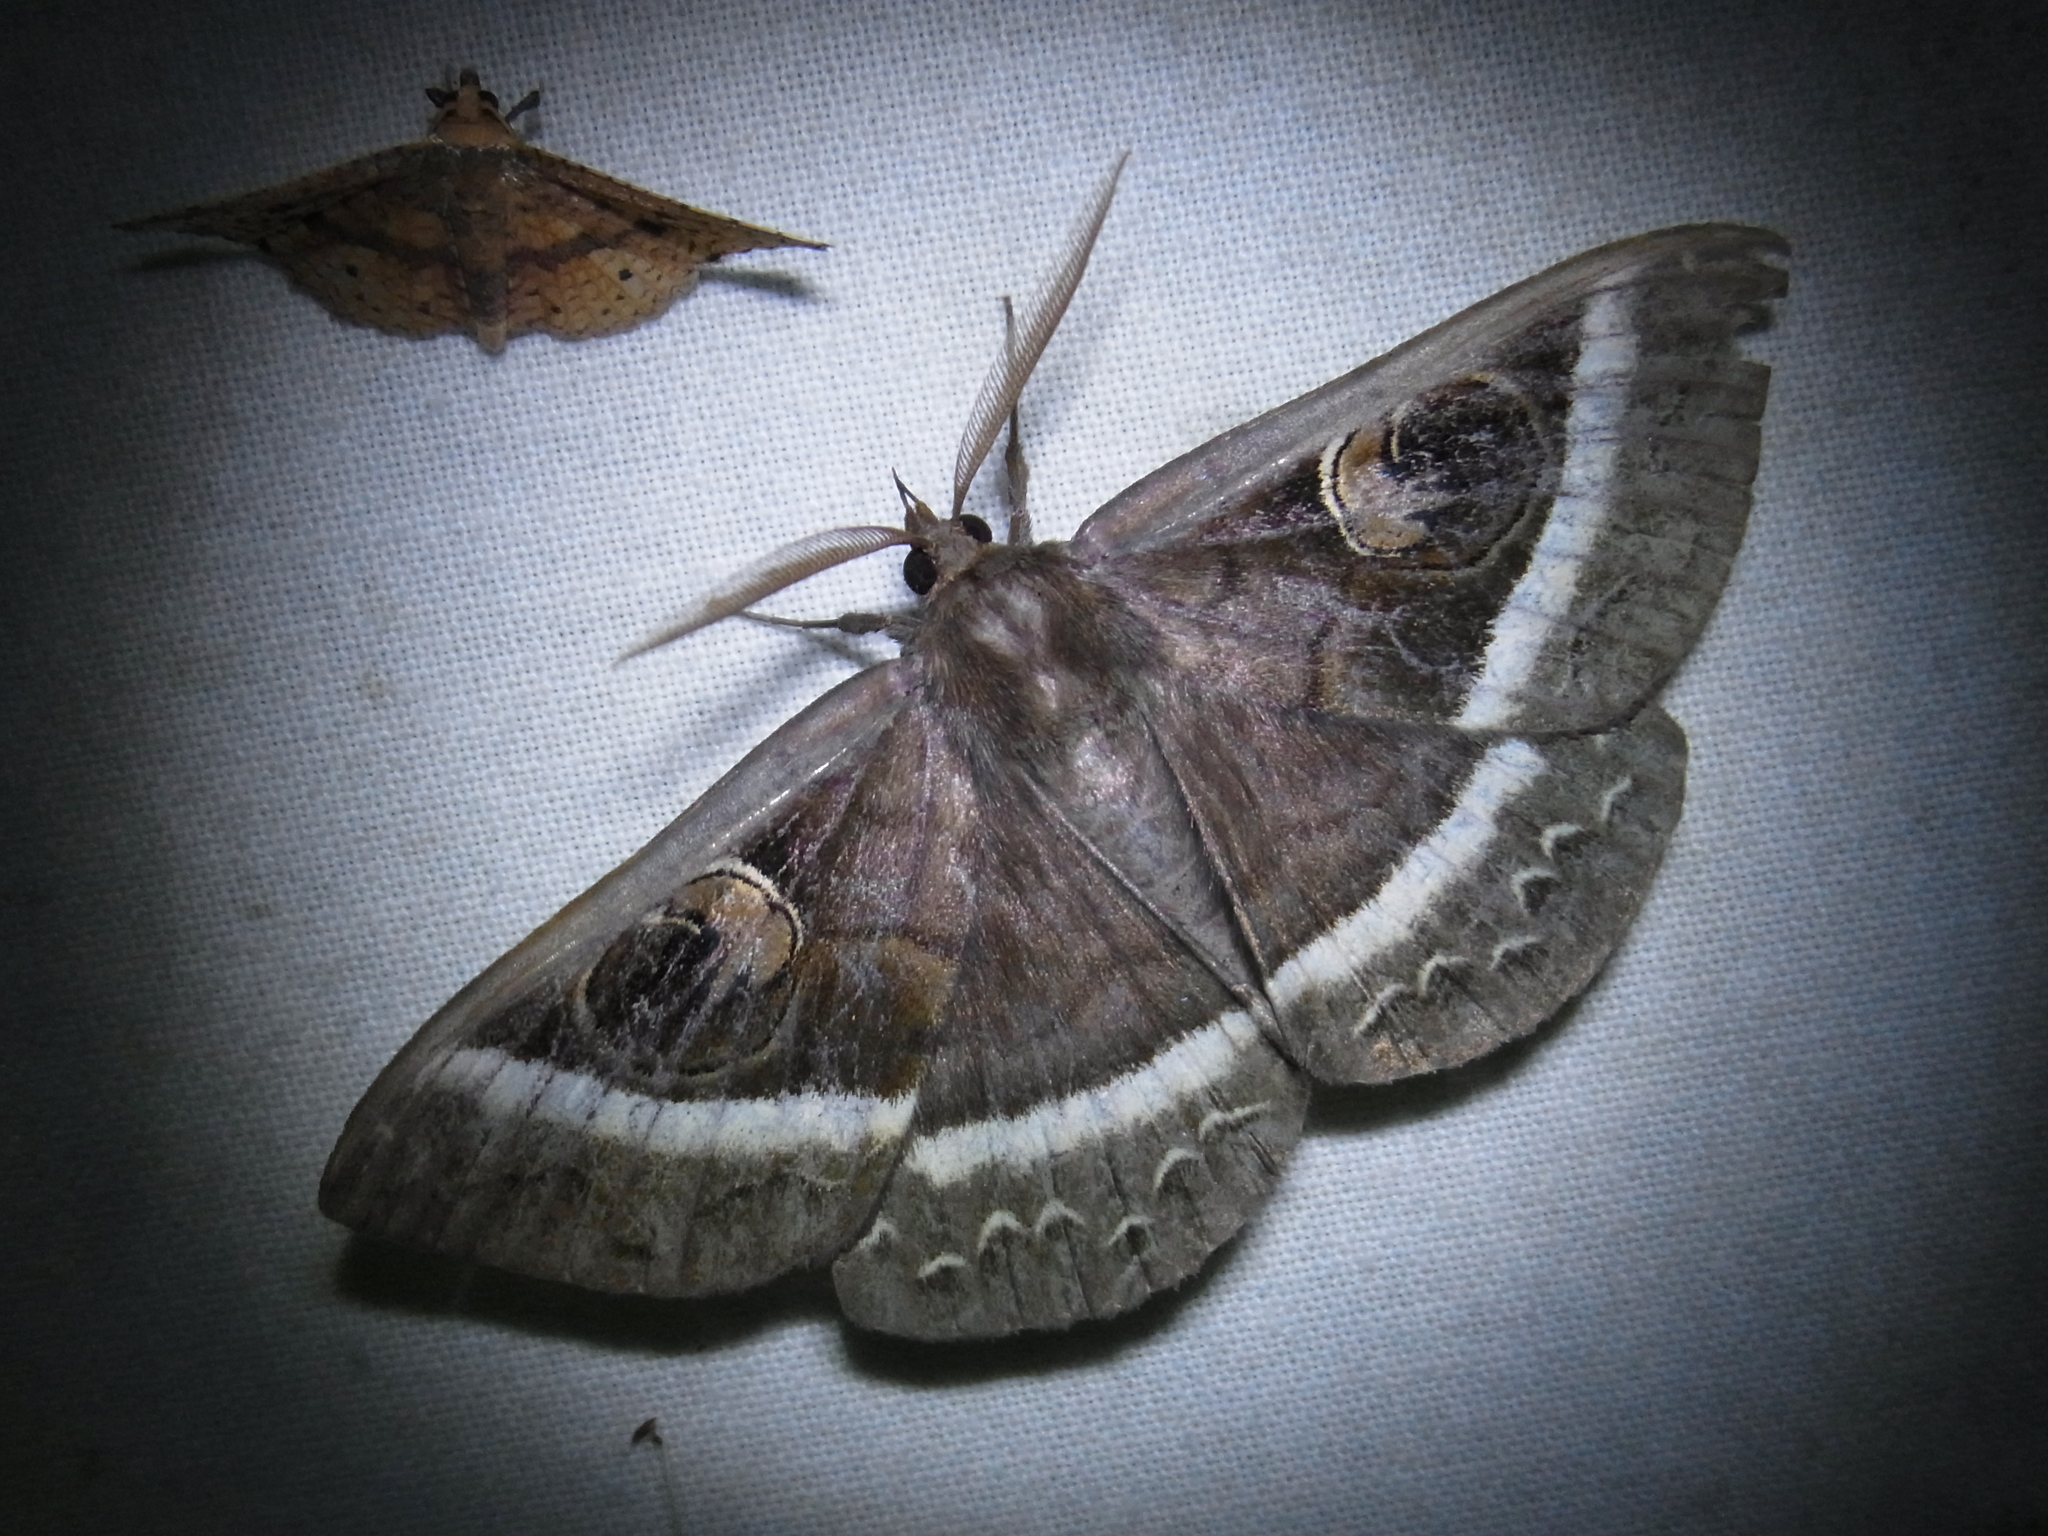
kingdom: Animalia
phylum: Arthropoda
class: Insecta
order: Lepidoptera
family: Erebidae
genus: Metopta
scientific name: Metopta rectifasciata
